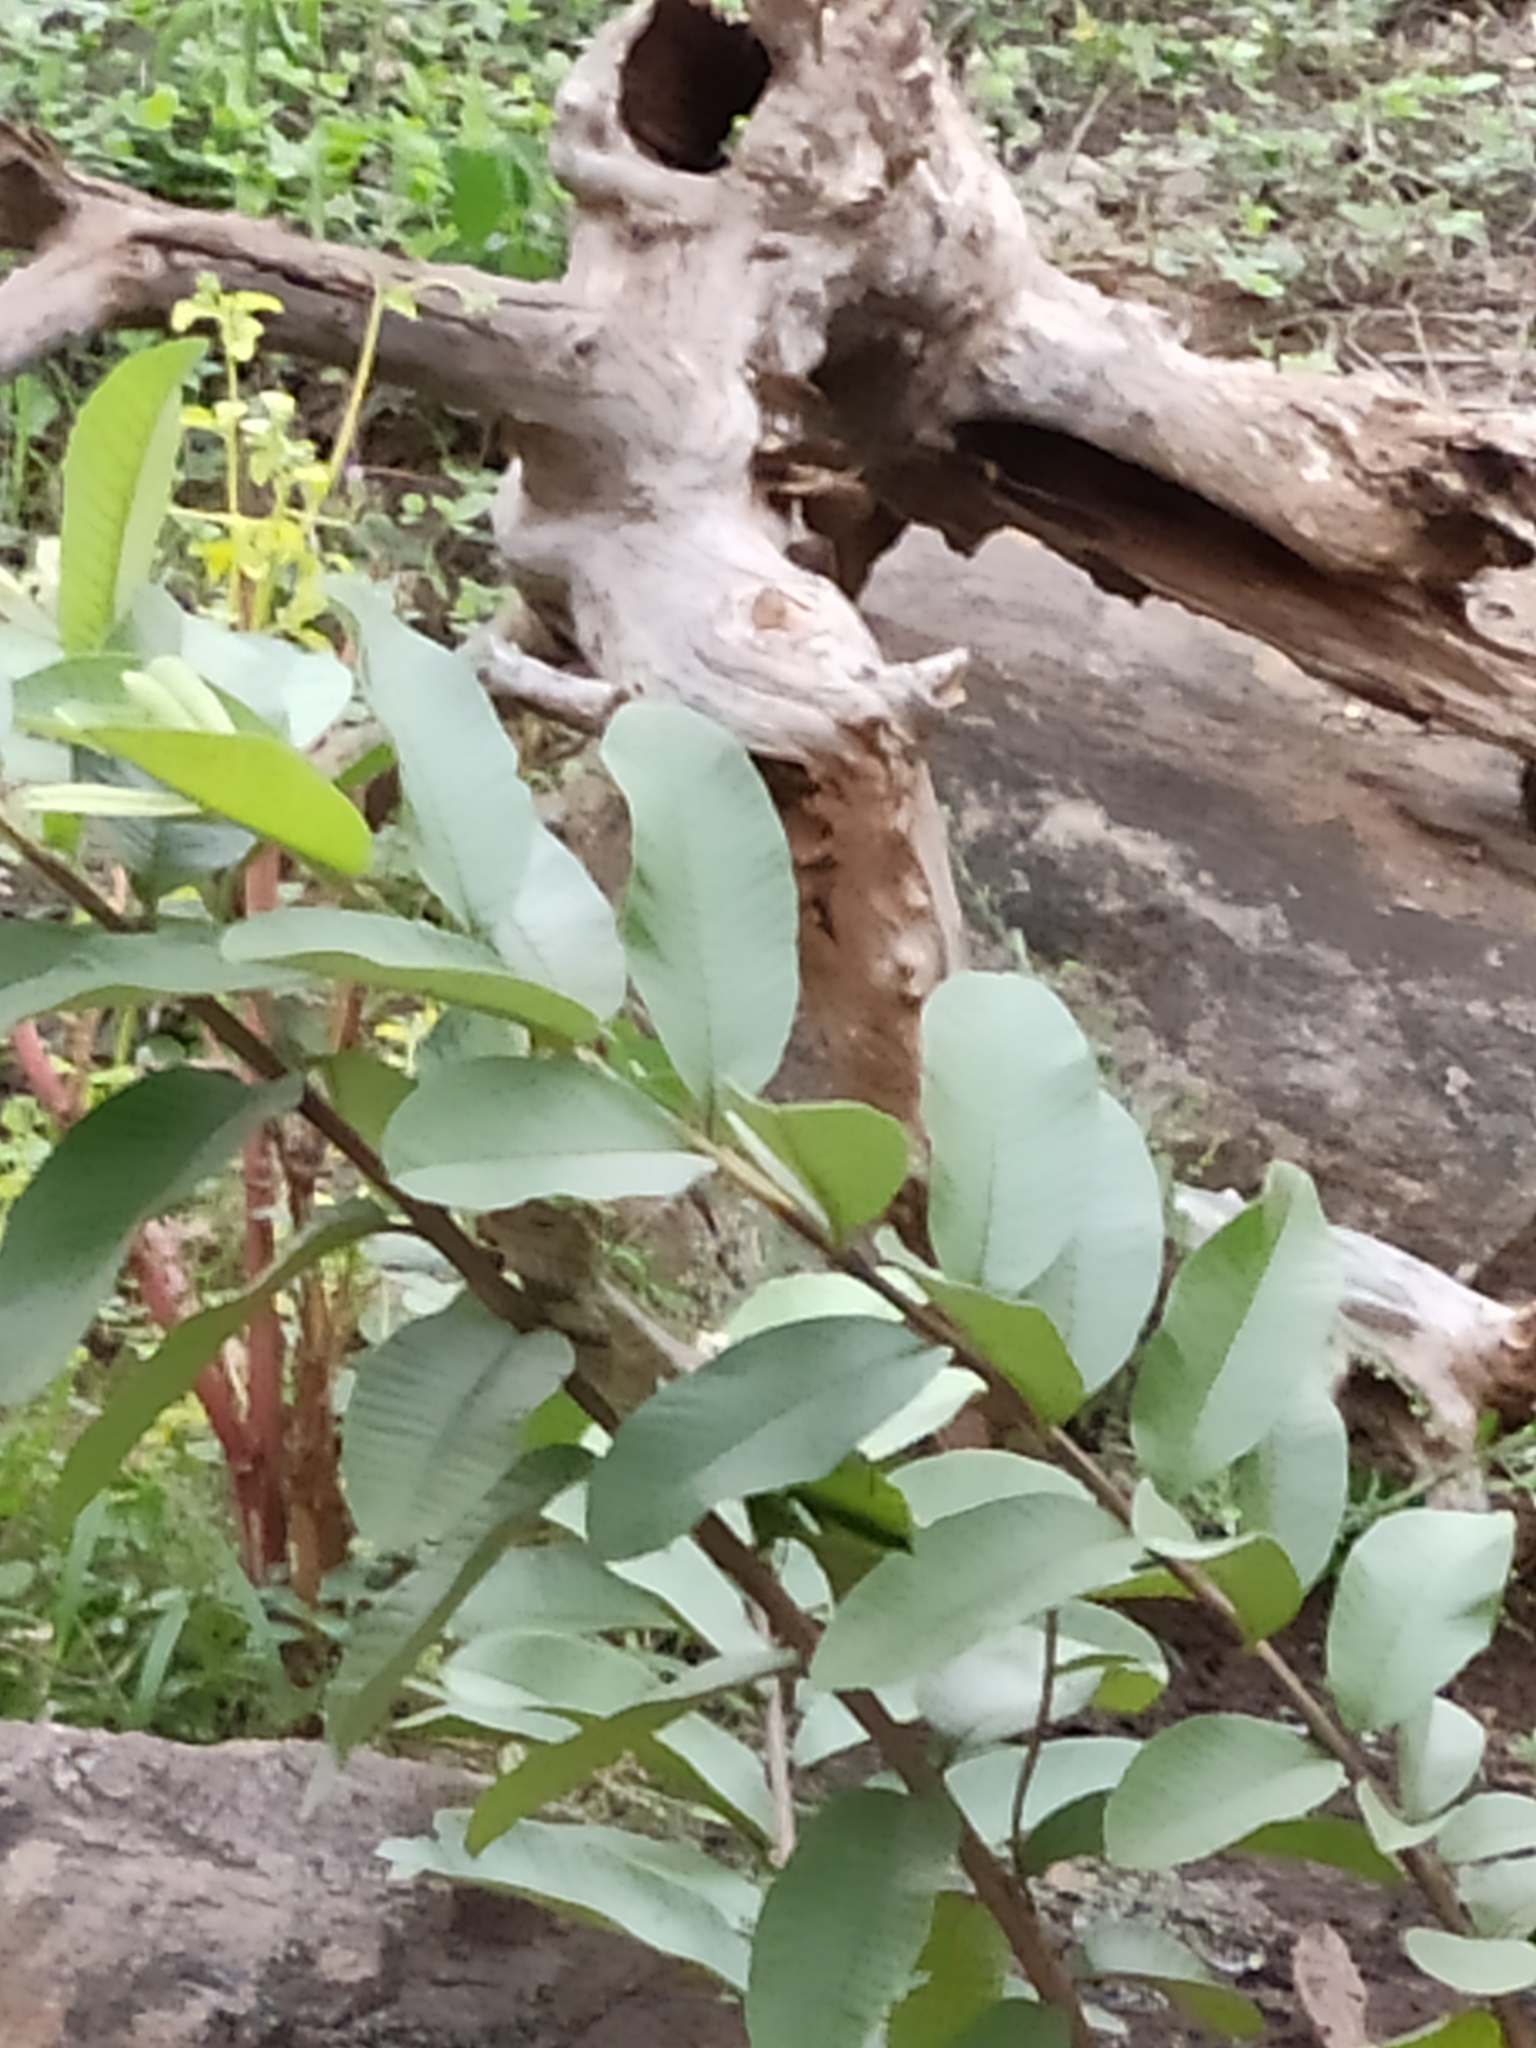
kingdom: Animalia
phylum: Chordata
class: Squamata
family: Agamidae
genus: Calotes
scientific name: Calotes versicolor
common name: Oriental garden lizard
